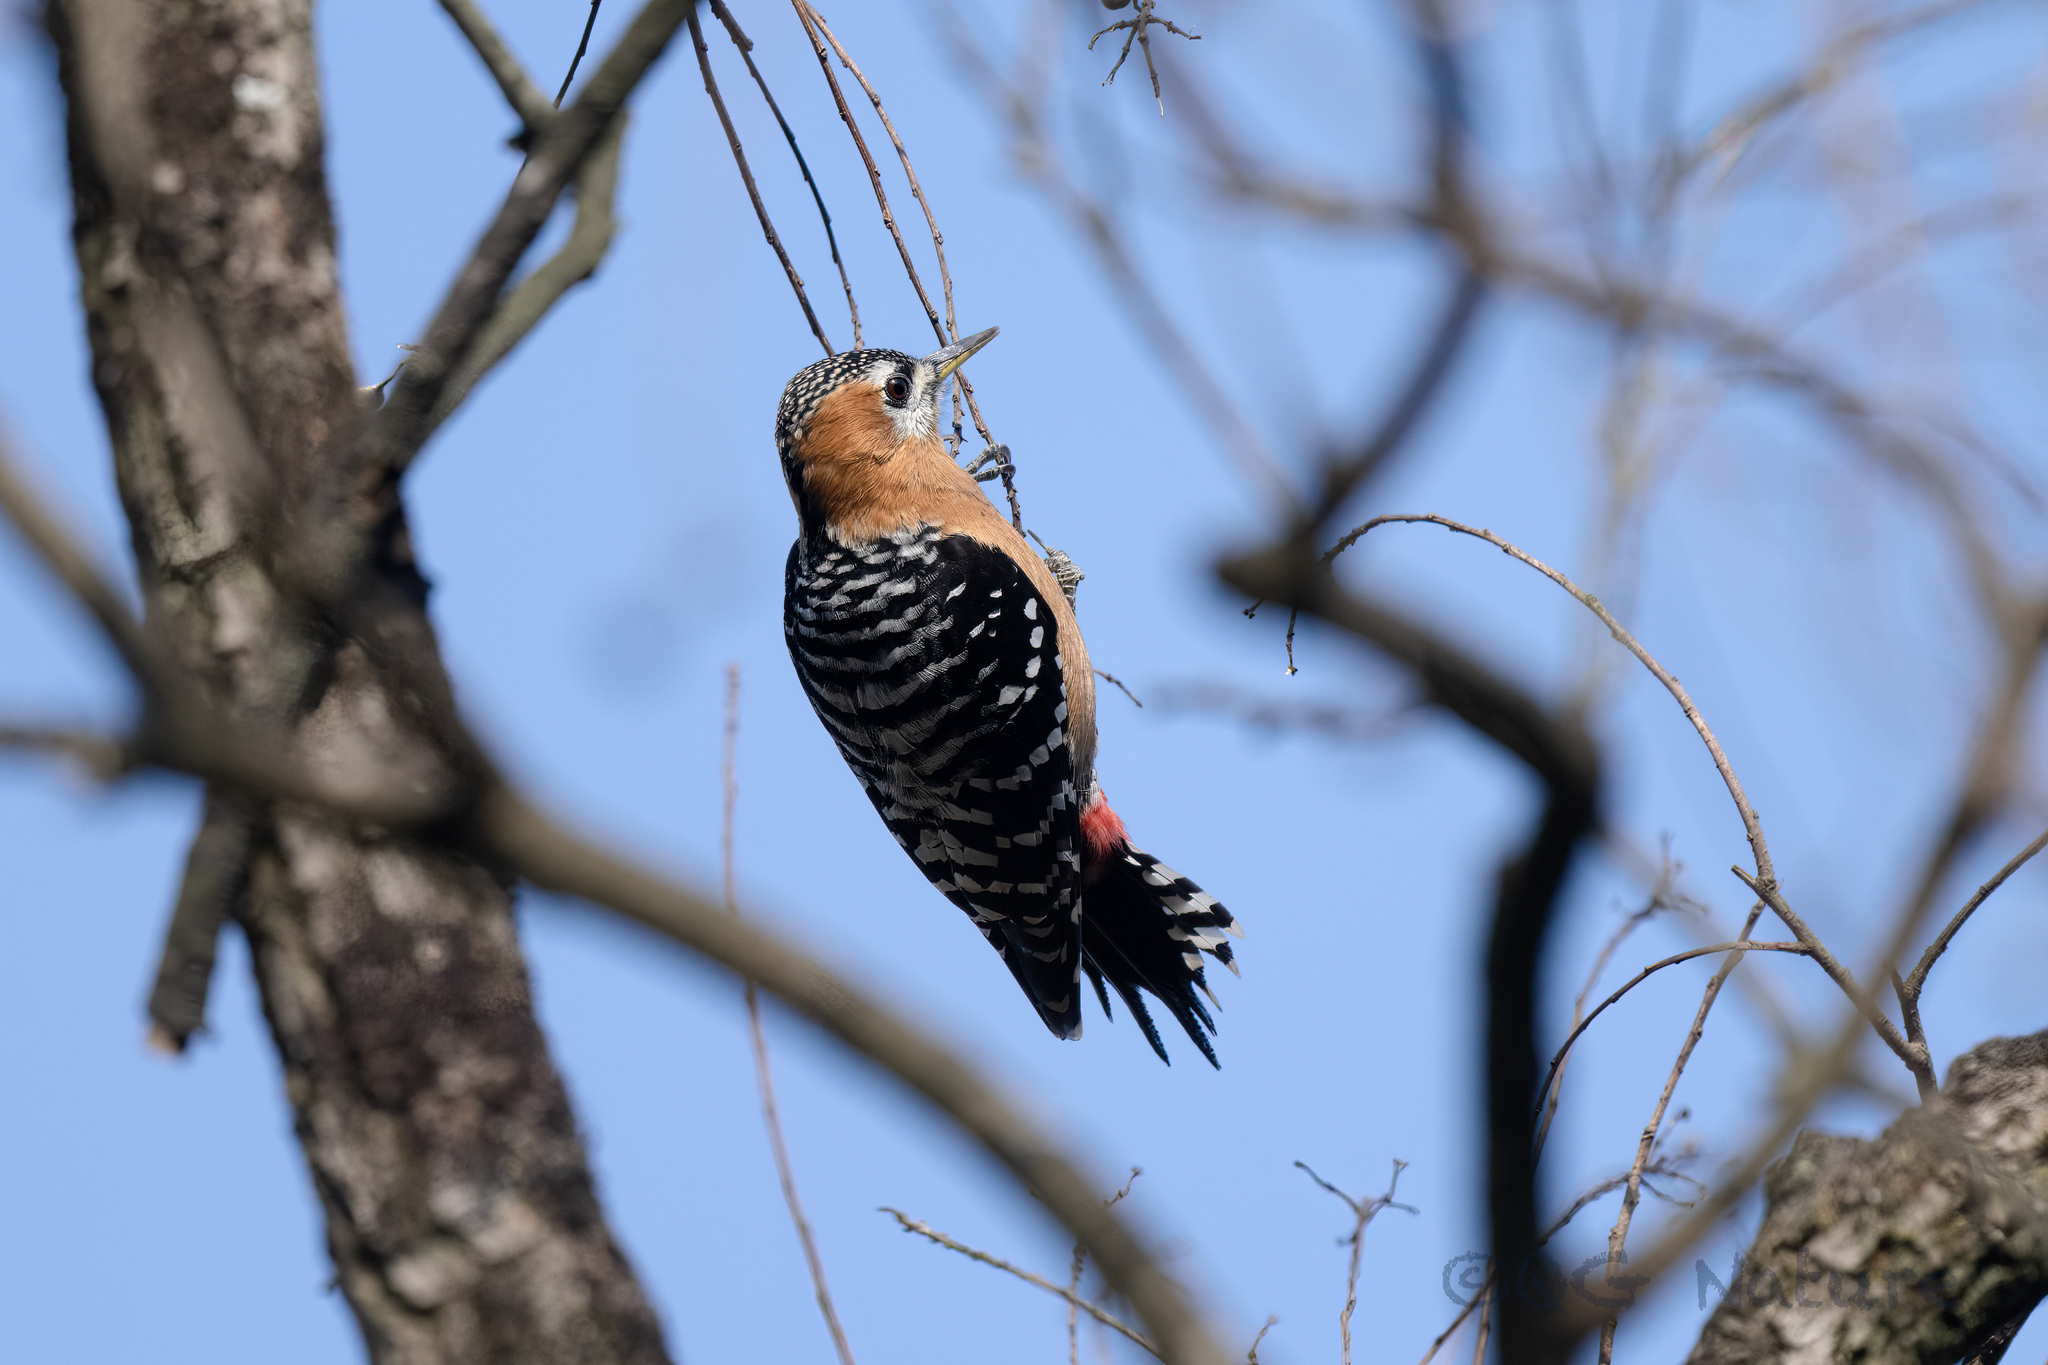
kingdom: Animalia
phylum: Chordata
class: Aves
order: Piciformes
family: Picidae
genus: Dendrocopos
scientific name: Dendrocopos hyperythrus
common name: Rufous-bellied woodpecker
